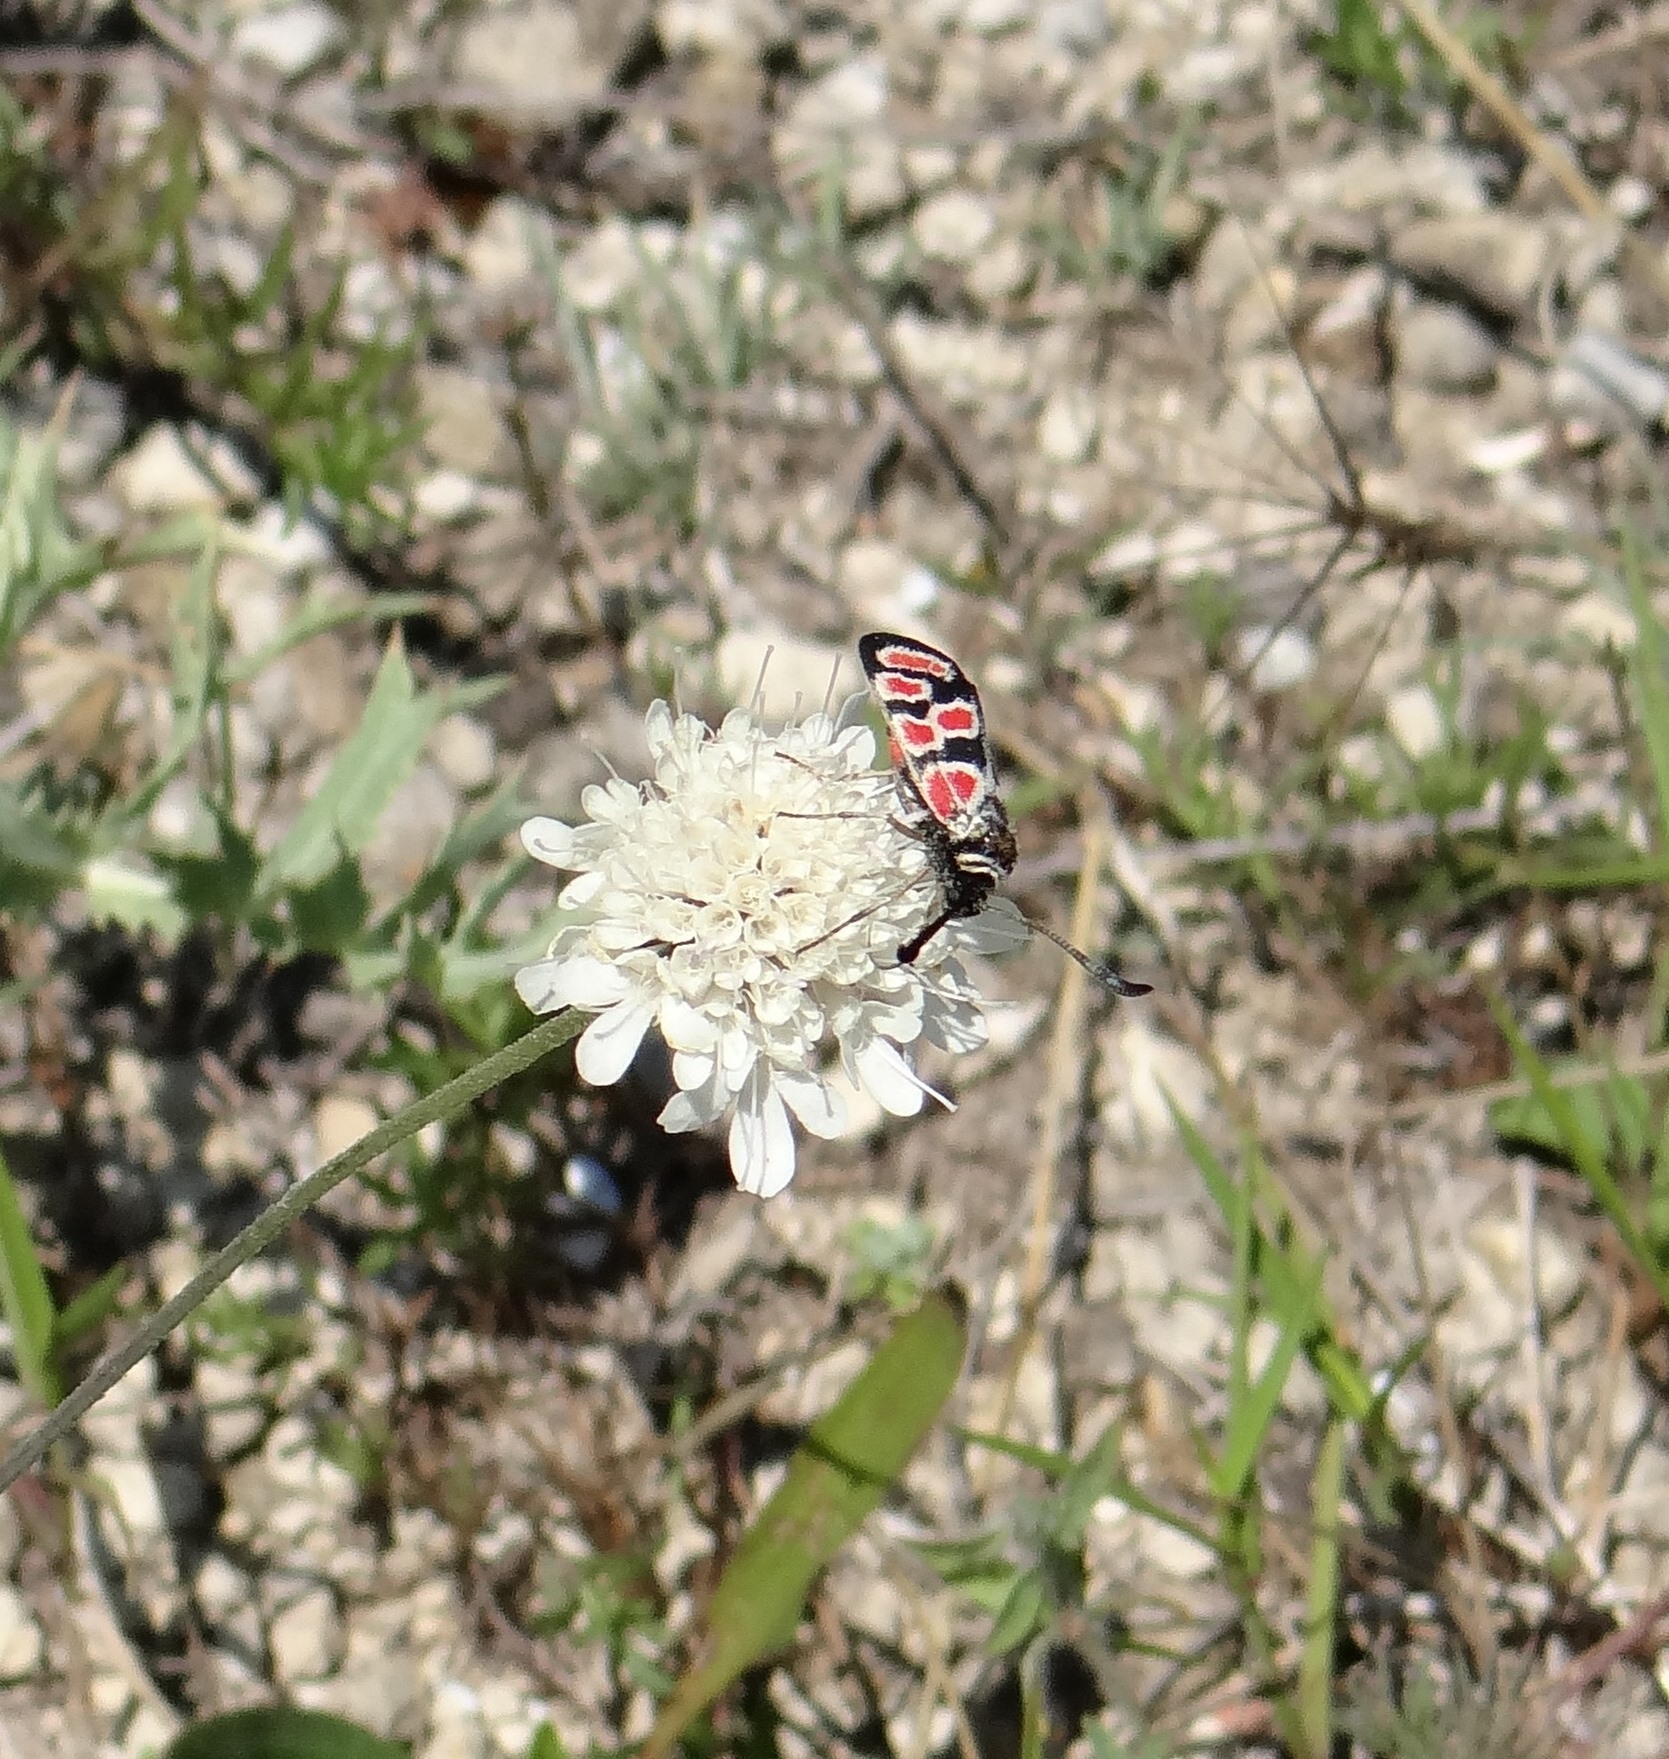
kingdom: Animalia
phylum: Arthropoda
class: Insecta
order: Lepidoptera
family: Zygaenidae
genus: Zygaena
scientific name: Zygaena carniolica
